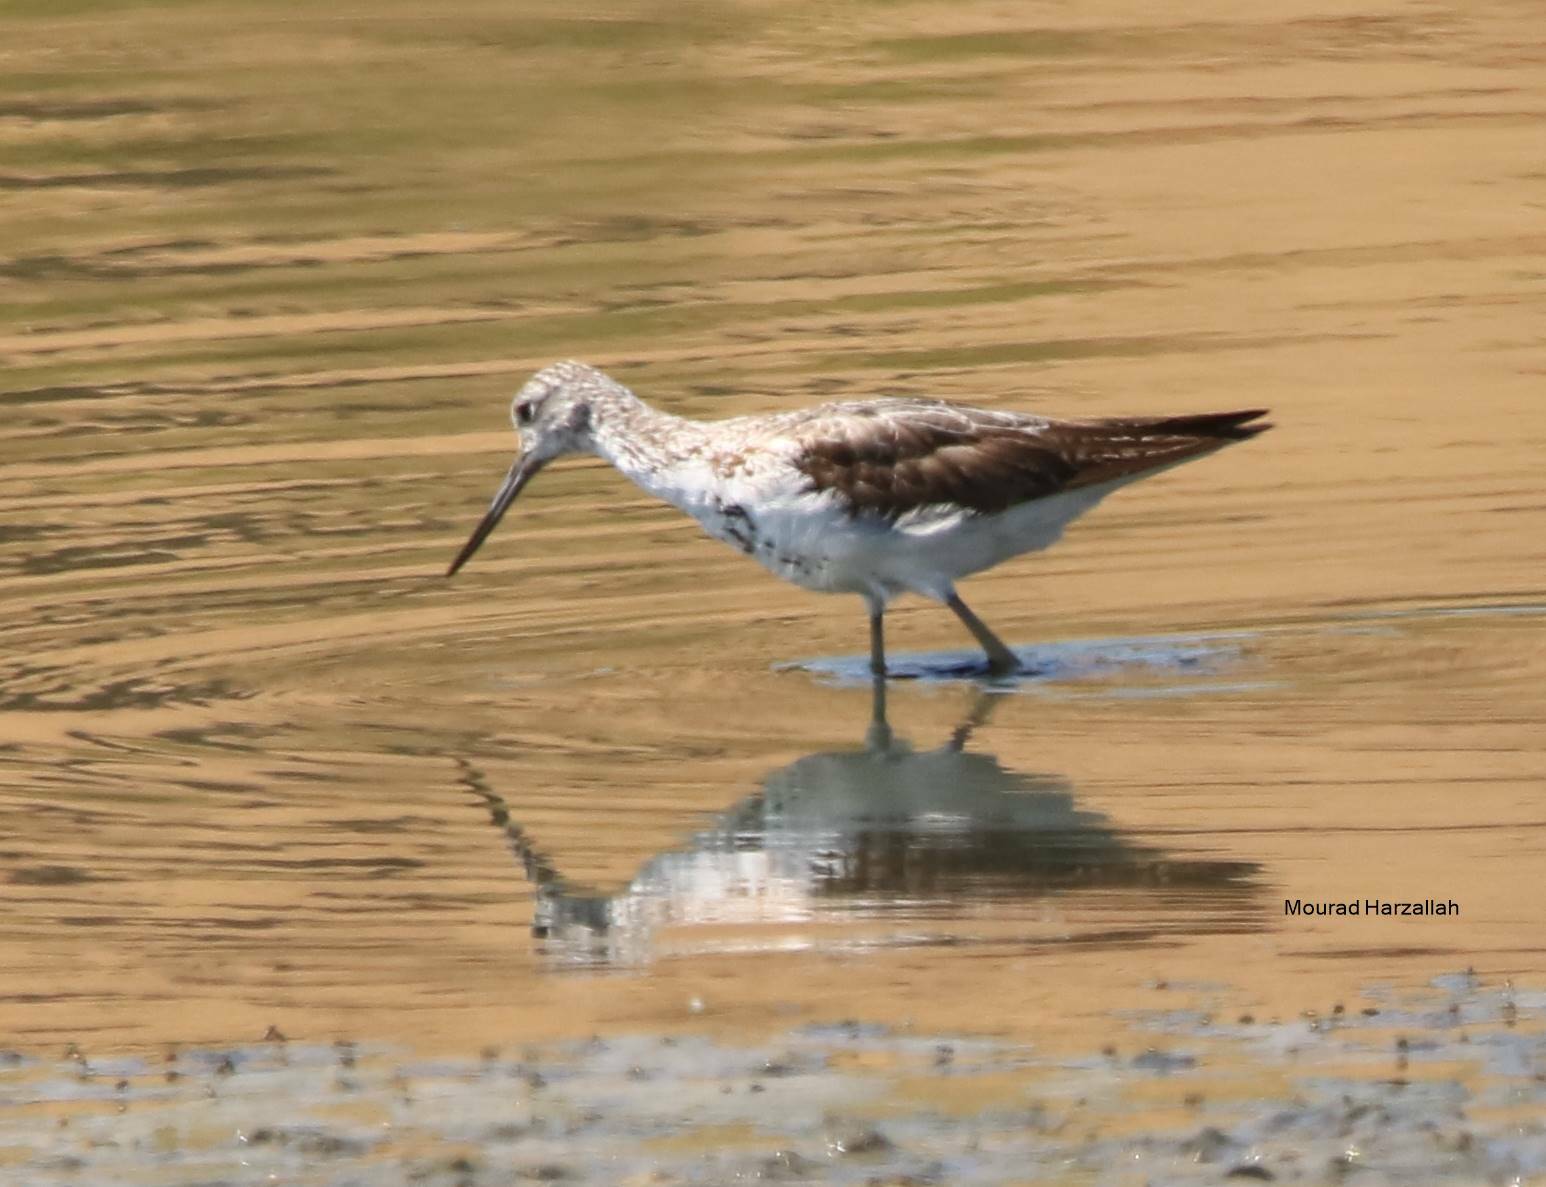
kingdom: Animalia
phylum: Chordata
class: Aves
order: Charadriiformes
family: Scolopacidae
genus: Tringa
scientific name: Tringa nebularia
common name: Common greenshank
